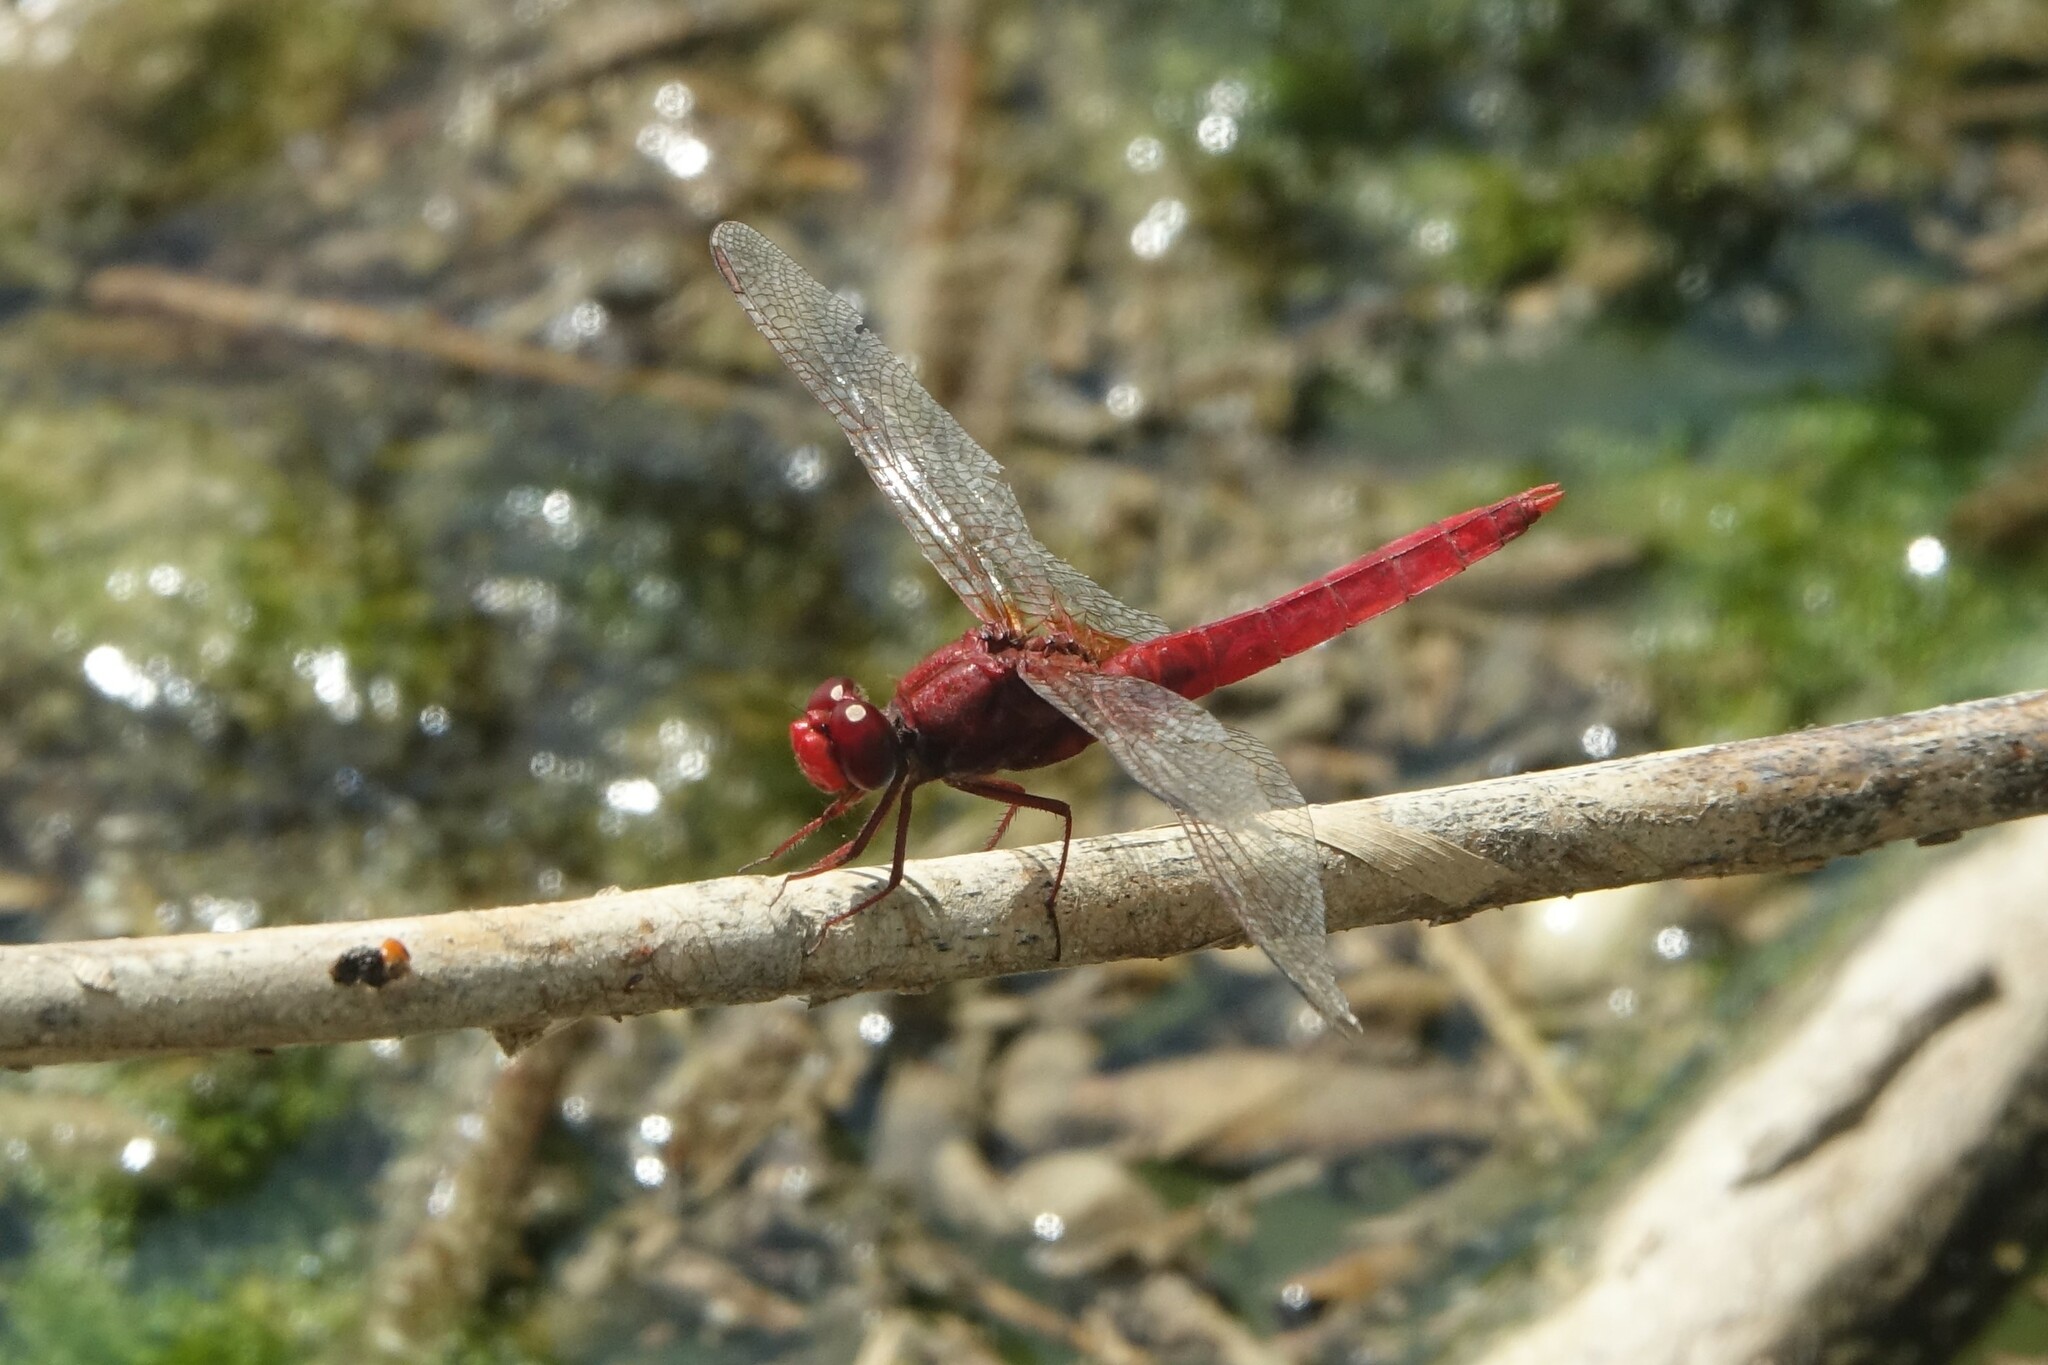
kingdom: Animalia
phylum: Arthropoda
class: Insecta
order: Odonata
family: Libellulidae
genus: Crocothemis
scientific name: Crocothemis erythraea
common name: Scarlet dragonfly
